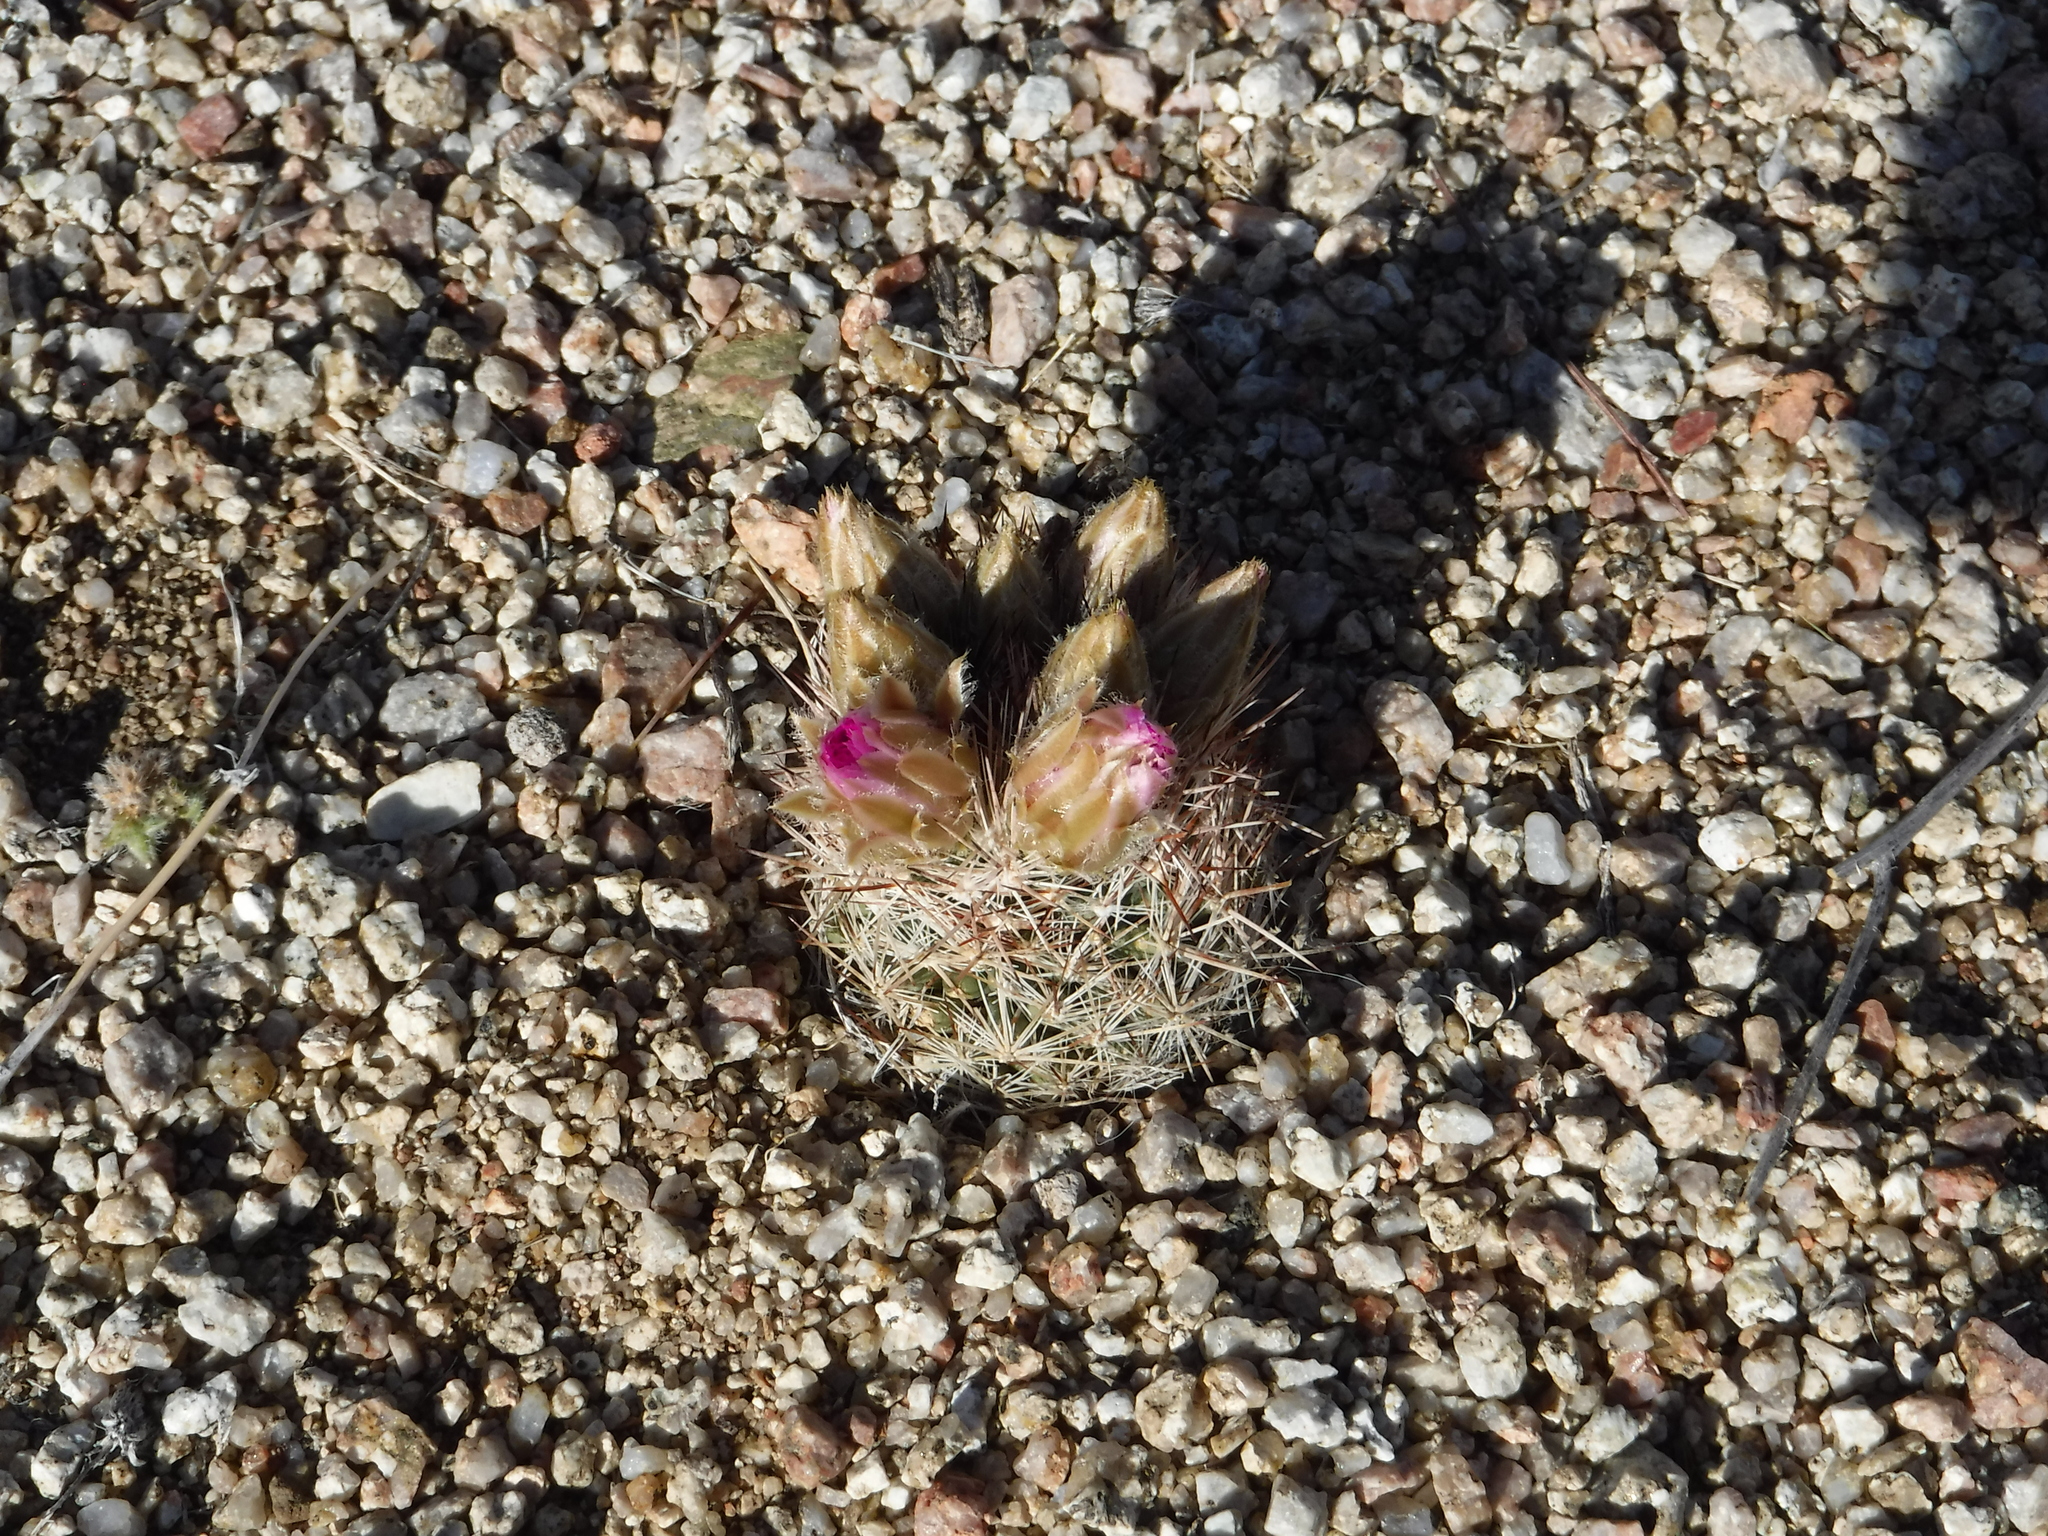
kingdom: Plantae
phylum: Tracheophyta
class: Magnoliopsida
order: Caryophyllales
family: Cactaceae
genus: Pelecyphora
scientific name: Pelecyphora vivipara
